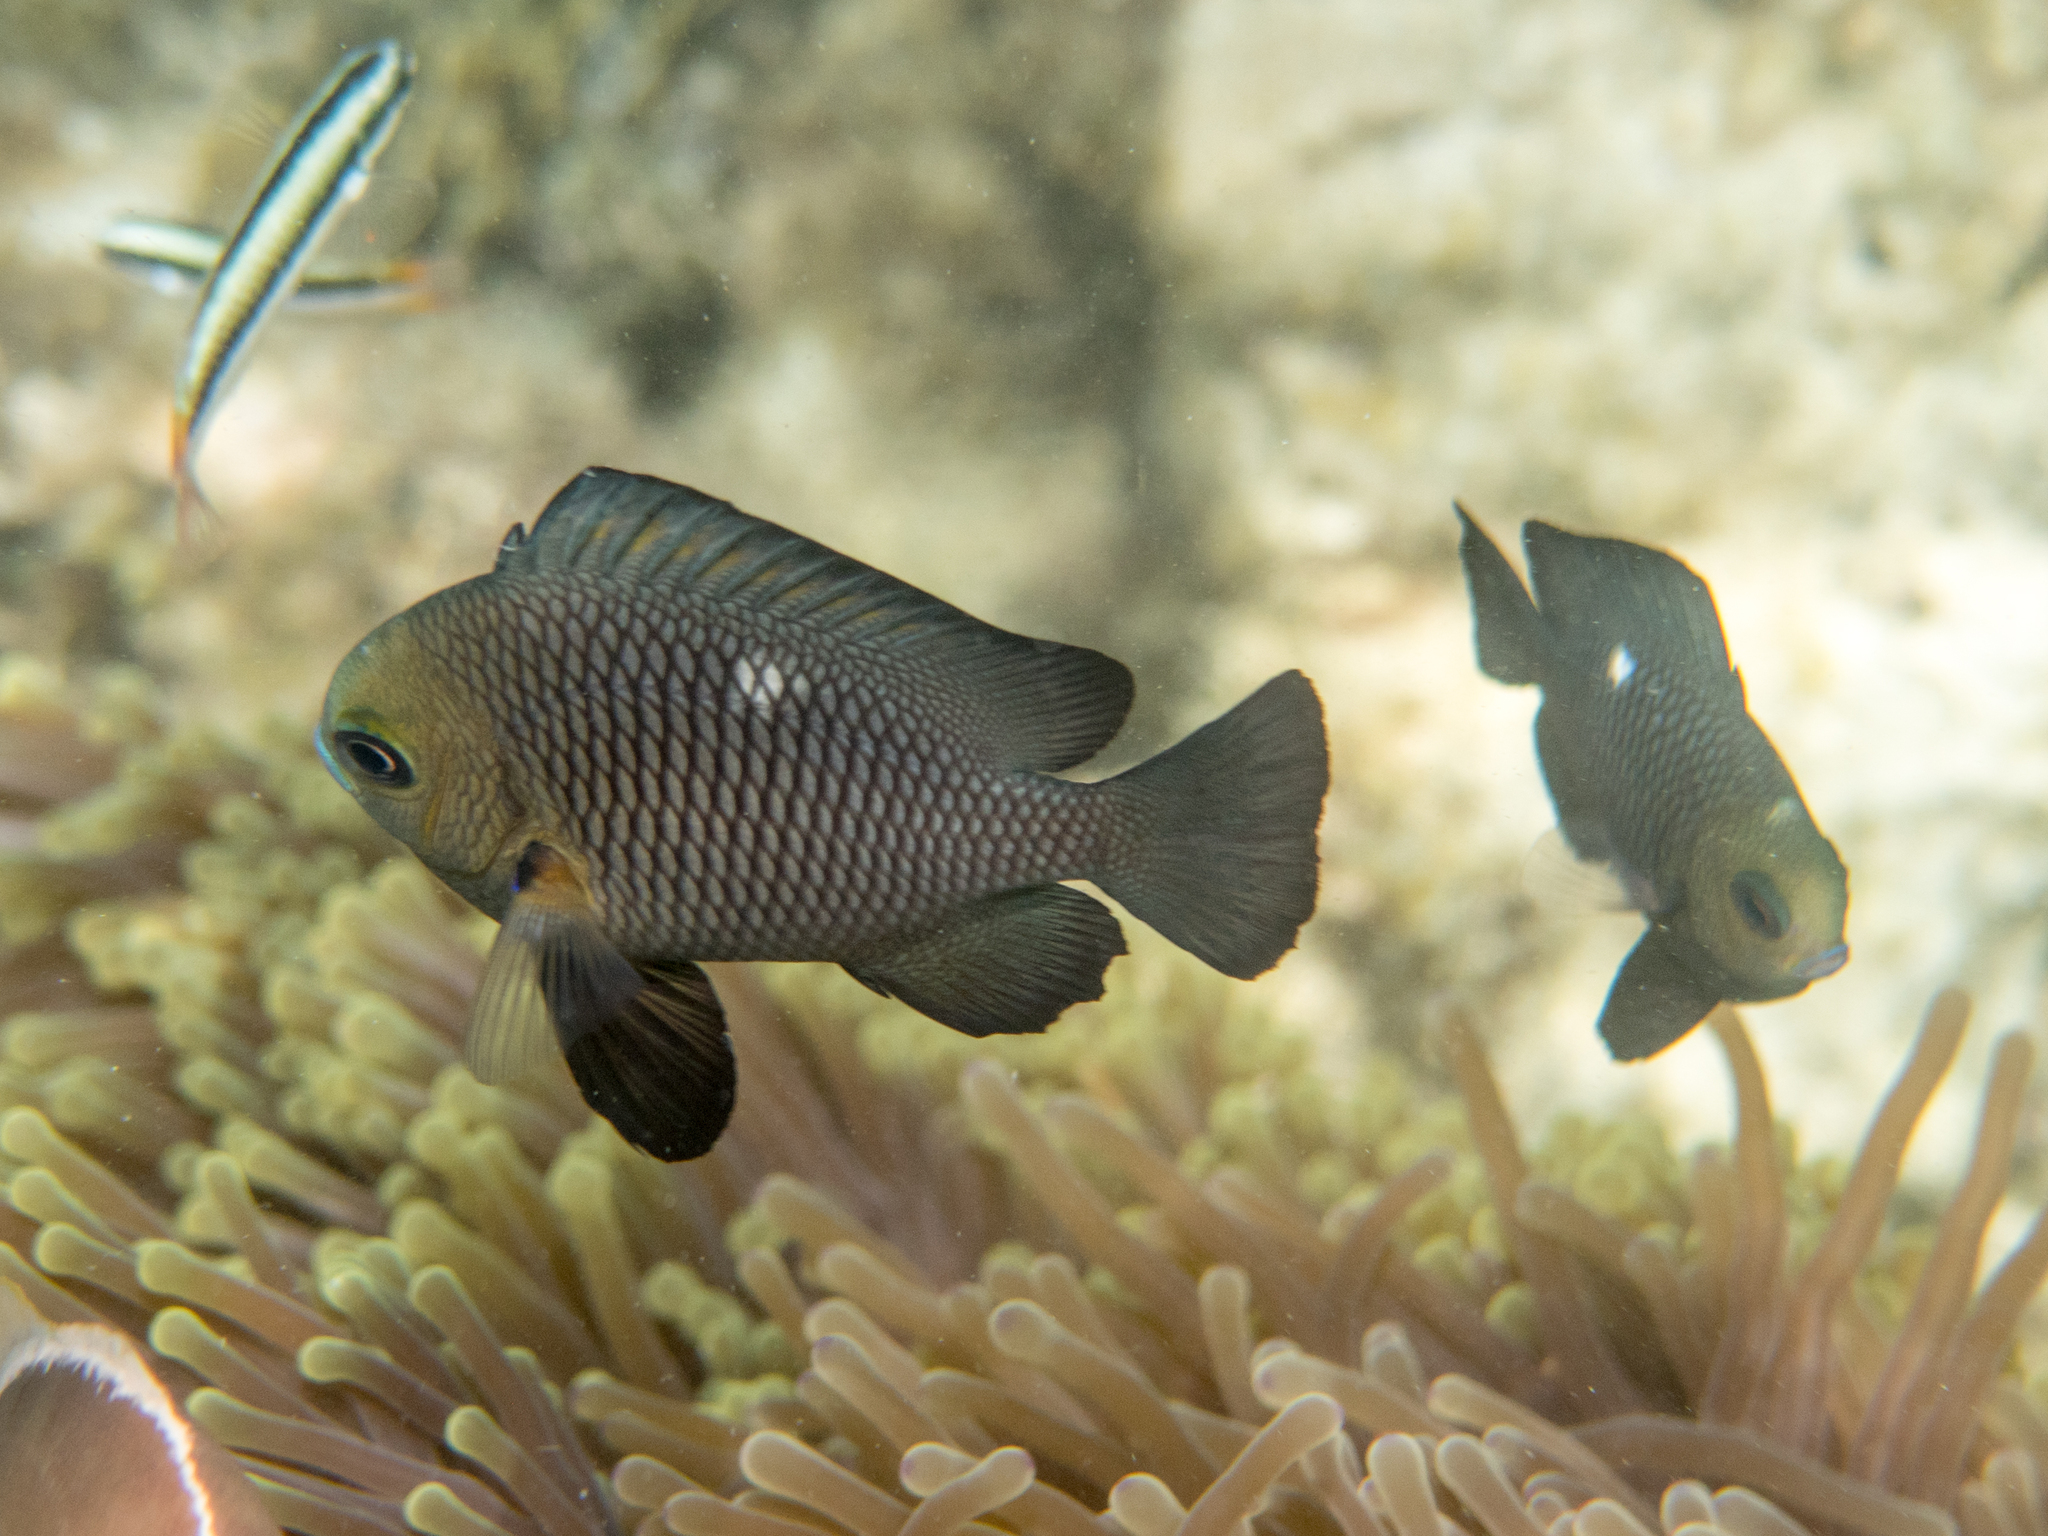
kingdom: Animalia
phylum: Chordata
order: Perciformes
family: Pomacentridae
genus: Dascyllus
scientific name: Dascyllus trimaculatus
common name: Threespot dascyllus
